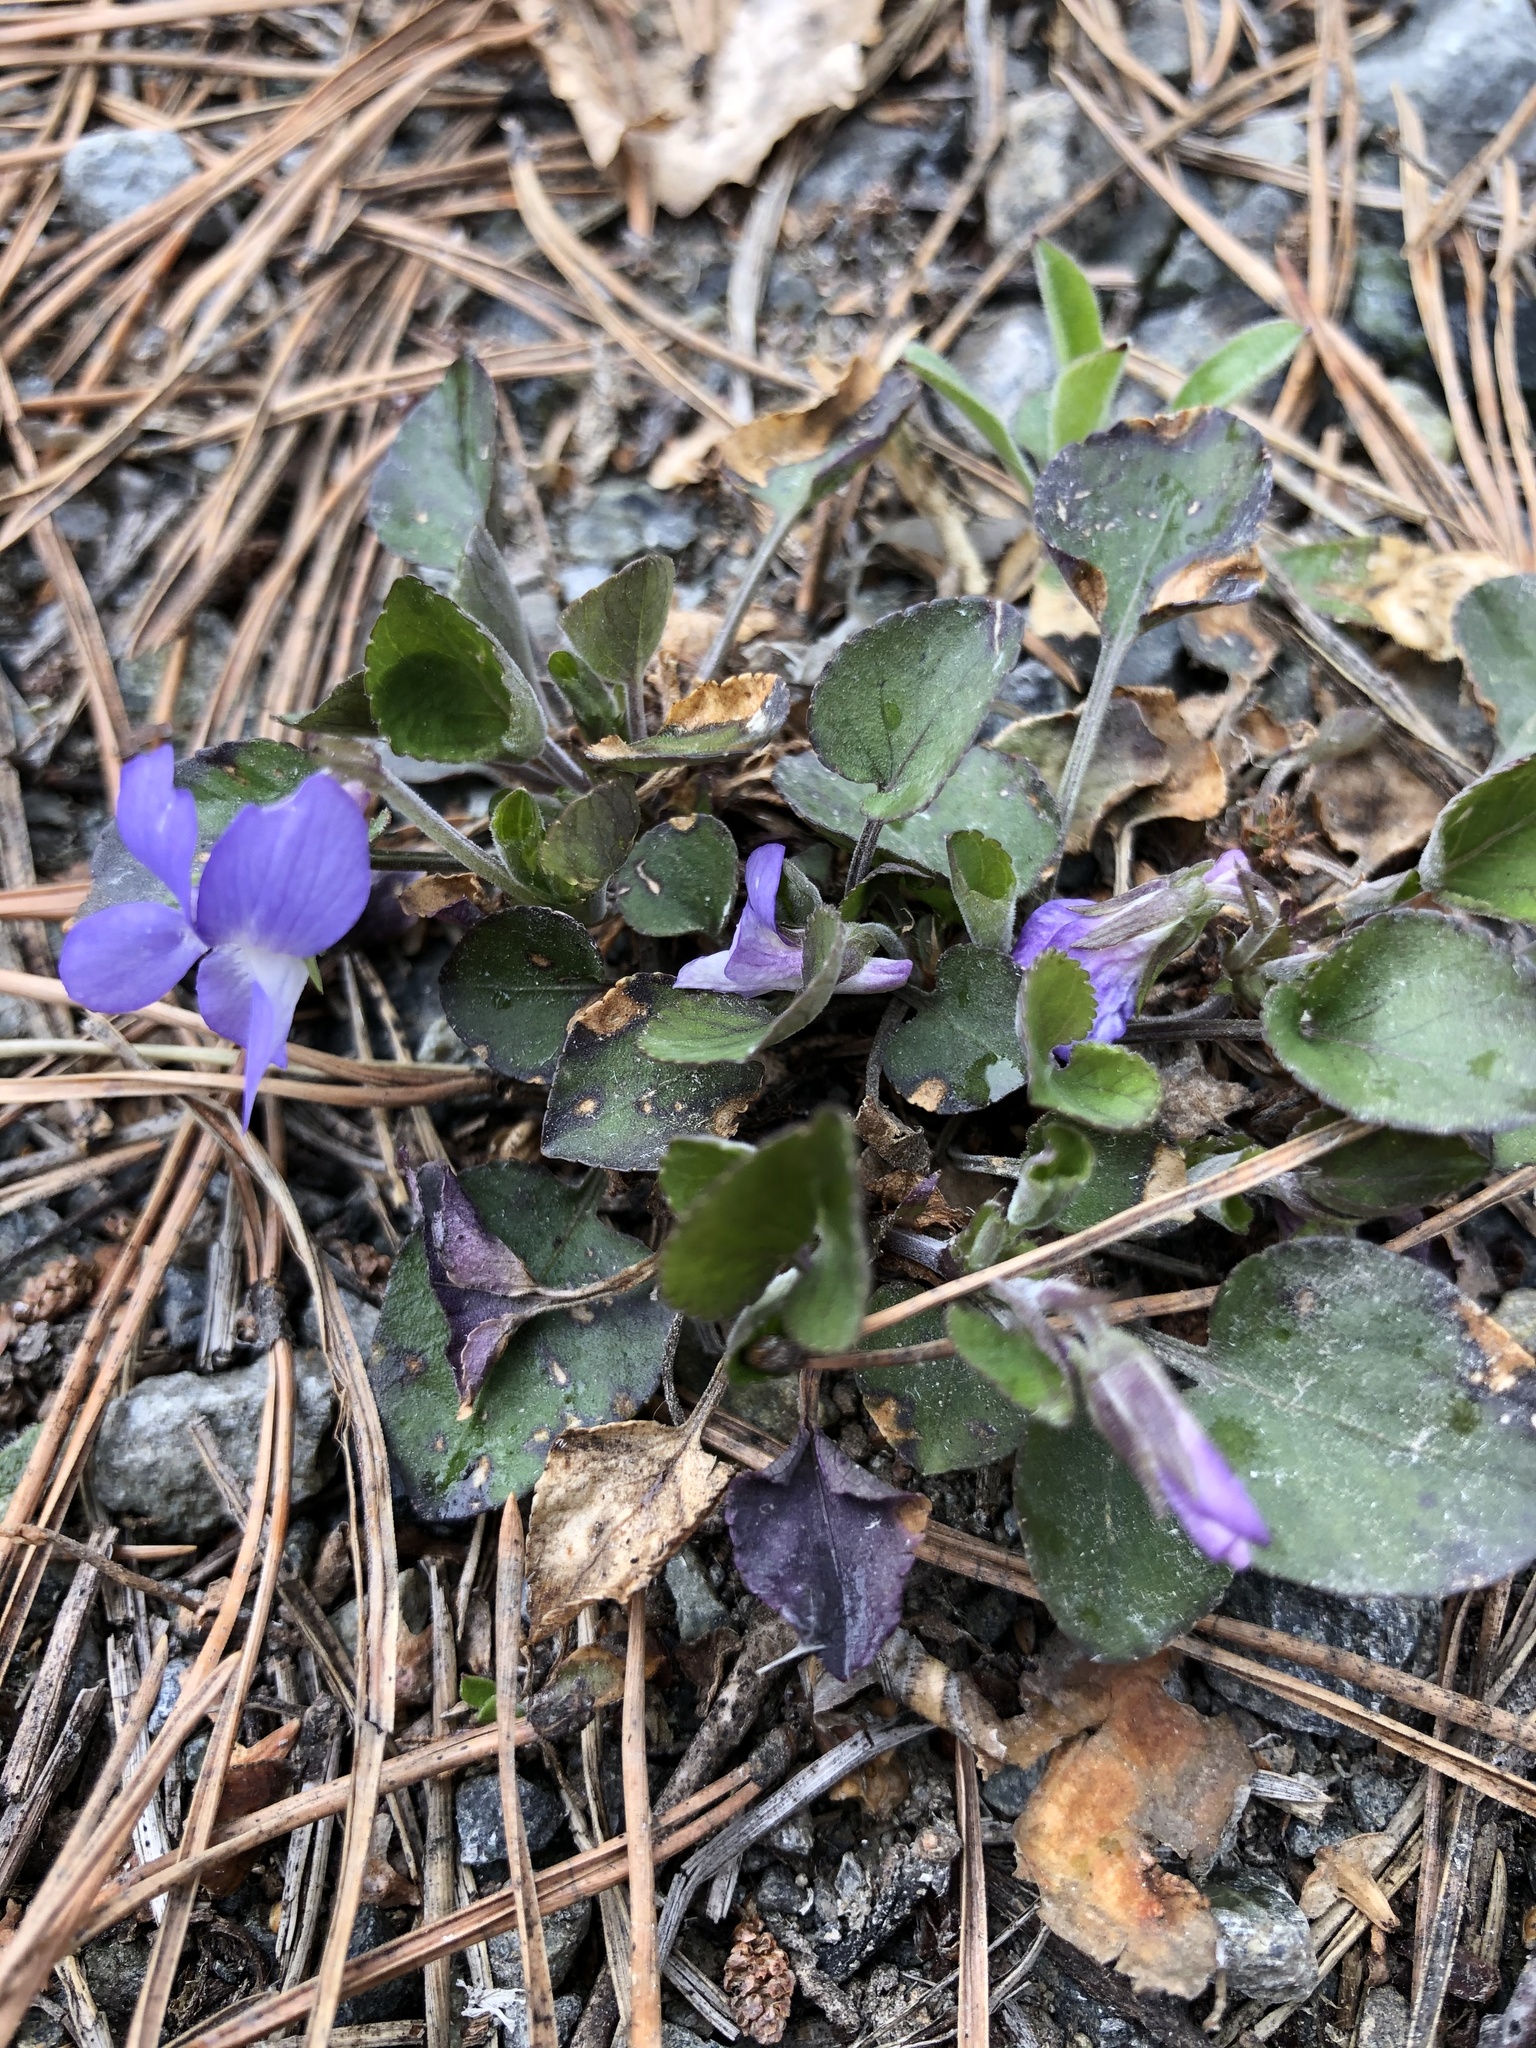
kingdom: Plantae
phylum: Tracheophyta
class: Magnoliopsida
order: Malpighiales
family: Violaceae
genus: Viola
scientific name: Viola rupestris
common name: Teesdale violet
